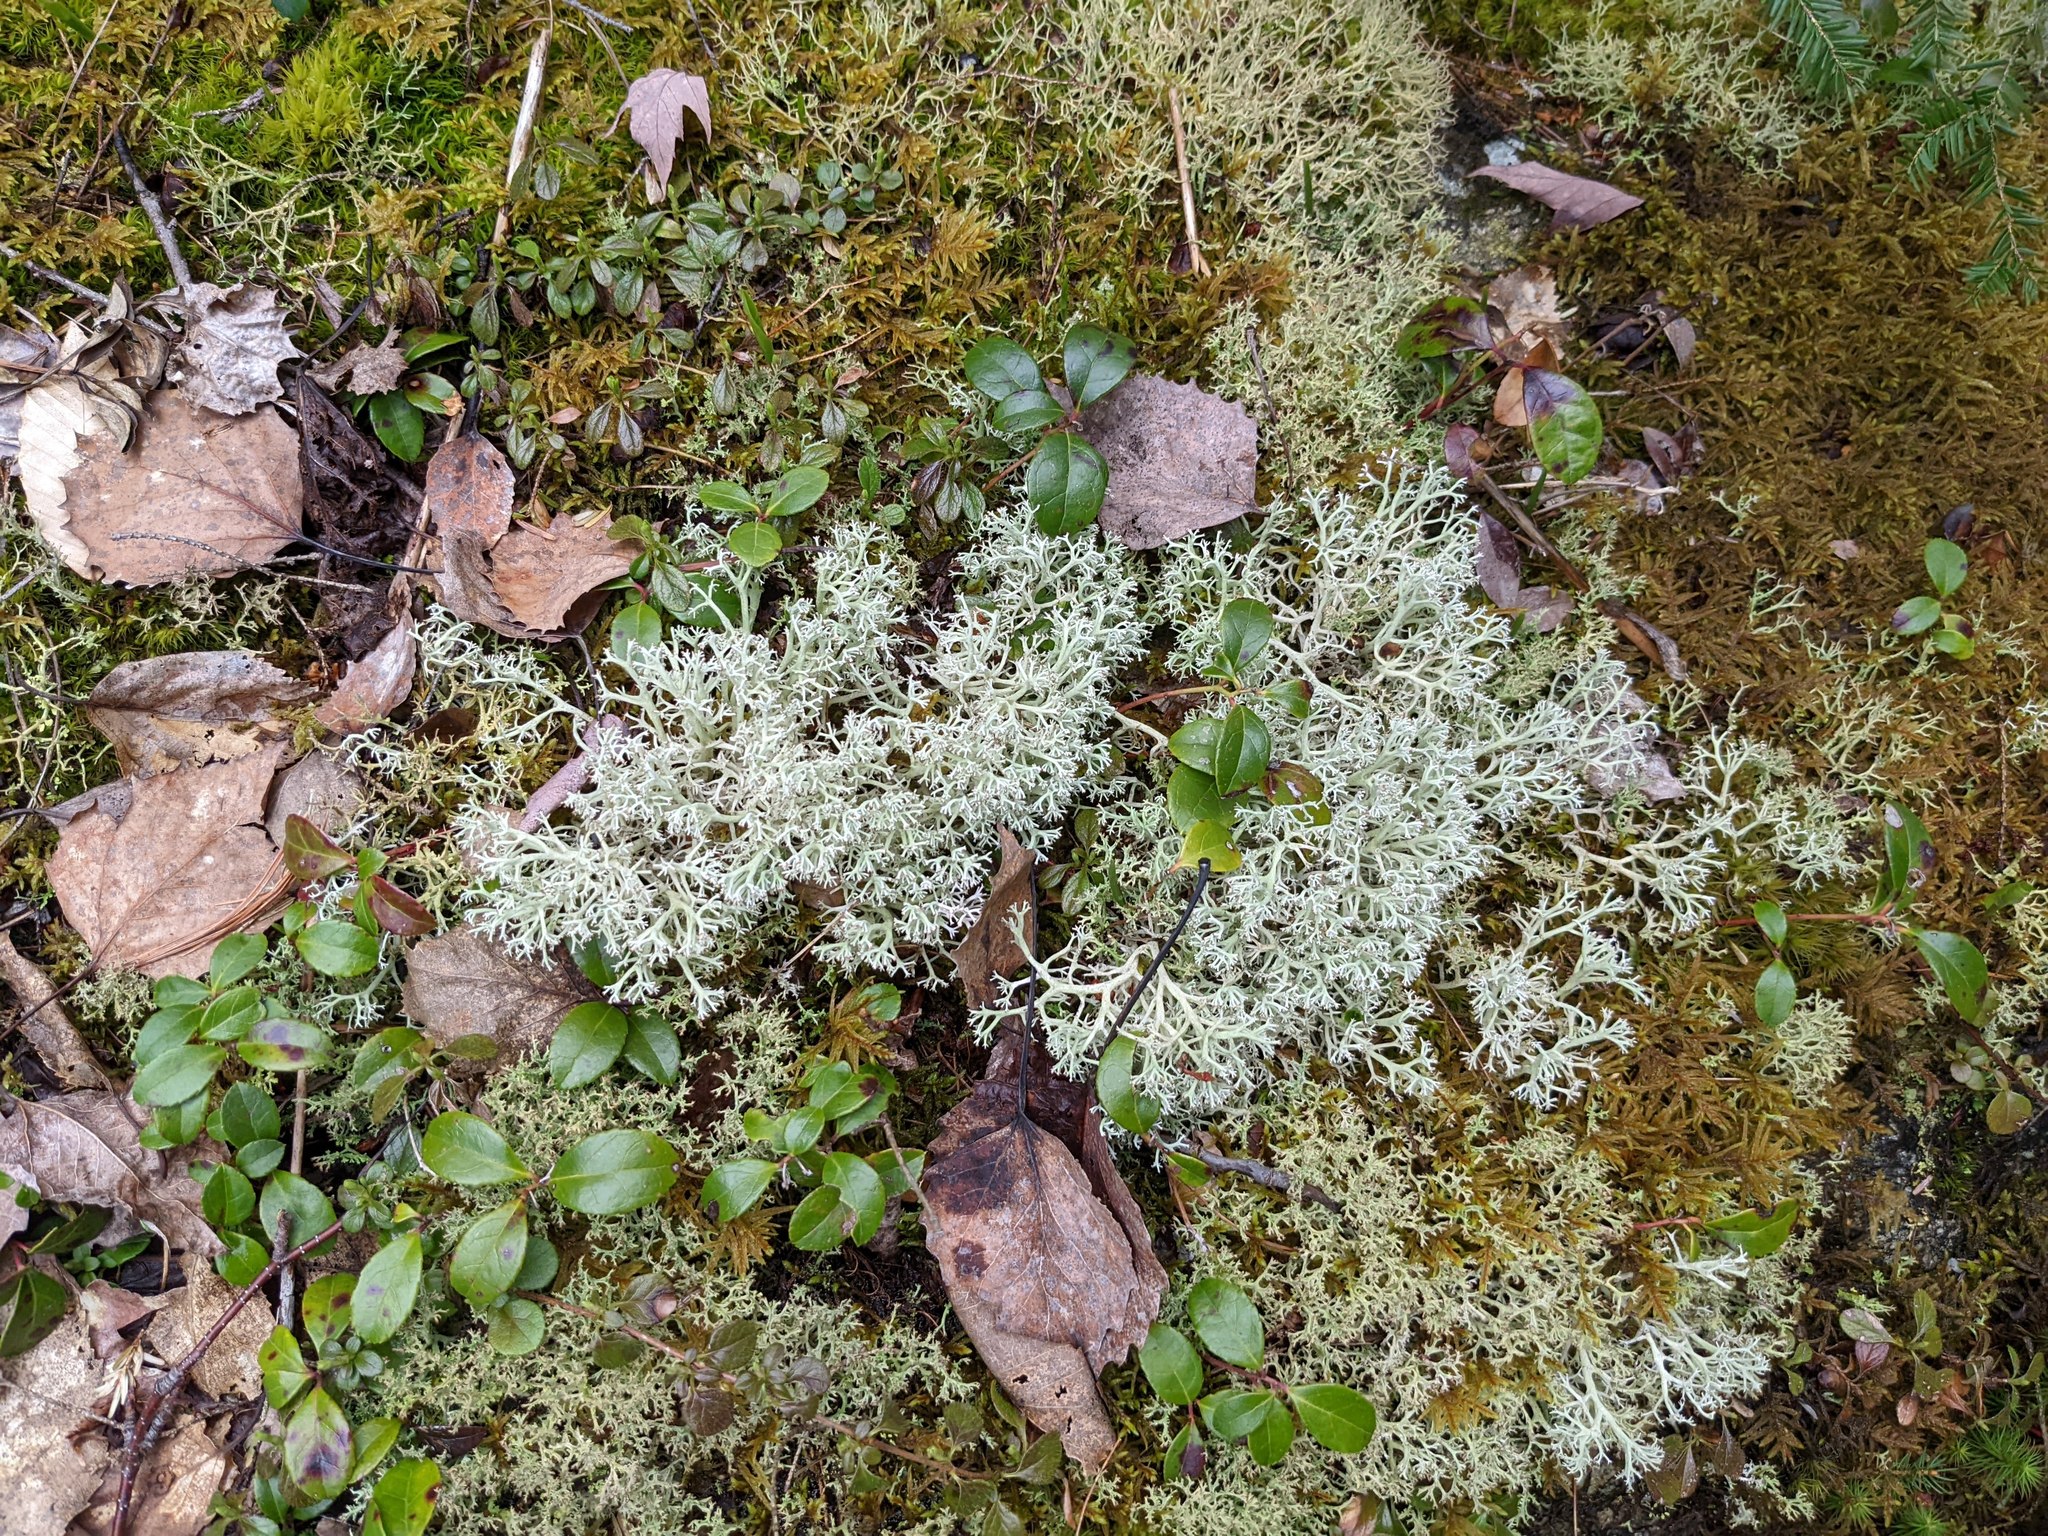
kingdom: Plantae
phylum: Tracheophyta
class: Magnoliopsida
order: Ericales
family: Ericaceae
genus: Gaultheria
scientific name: Gaultheria procumbens
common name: Checkerberry
